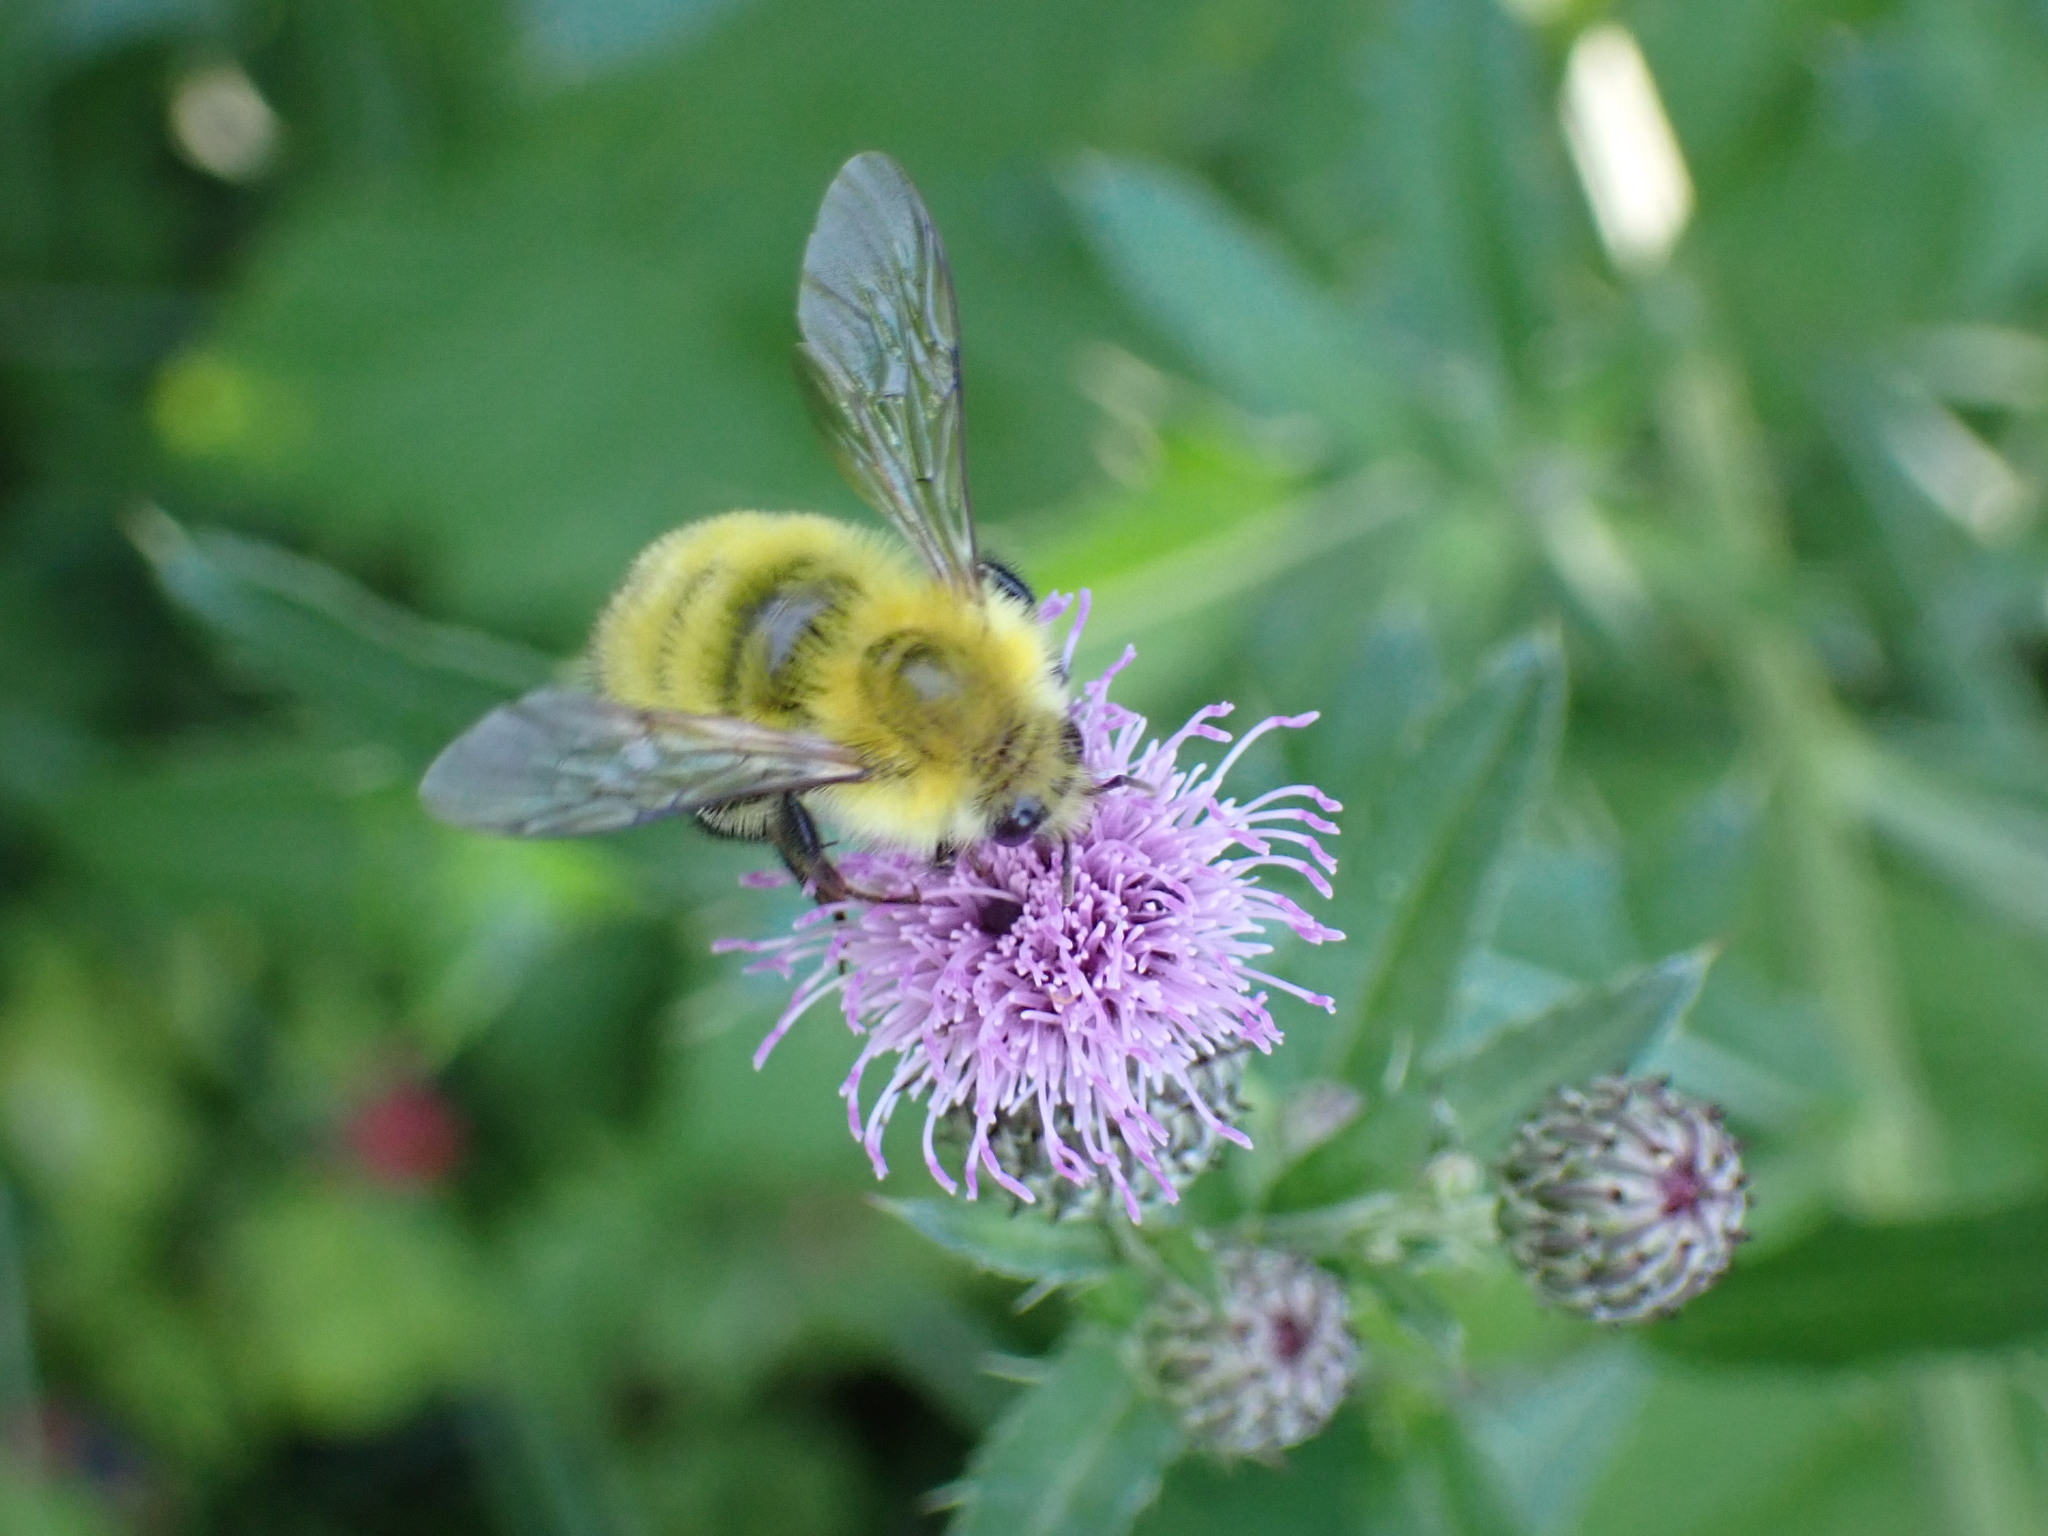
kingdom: Animalia
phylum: Arthropoda
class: Insecta
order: Hymenoptera
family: Apidae
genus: Bombus
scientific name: Bombus perplexus
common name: Confusing bumble bee
